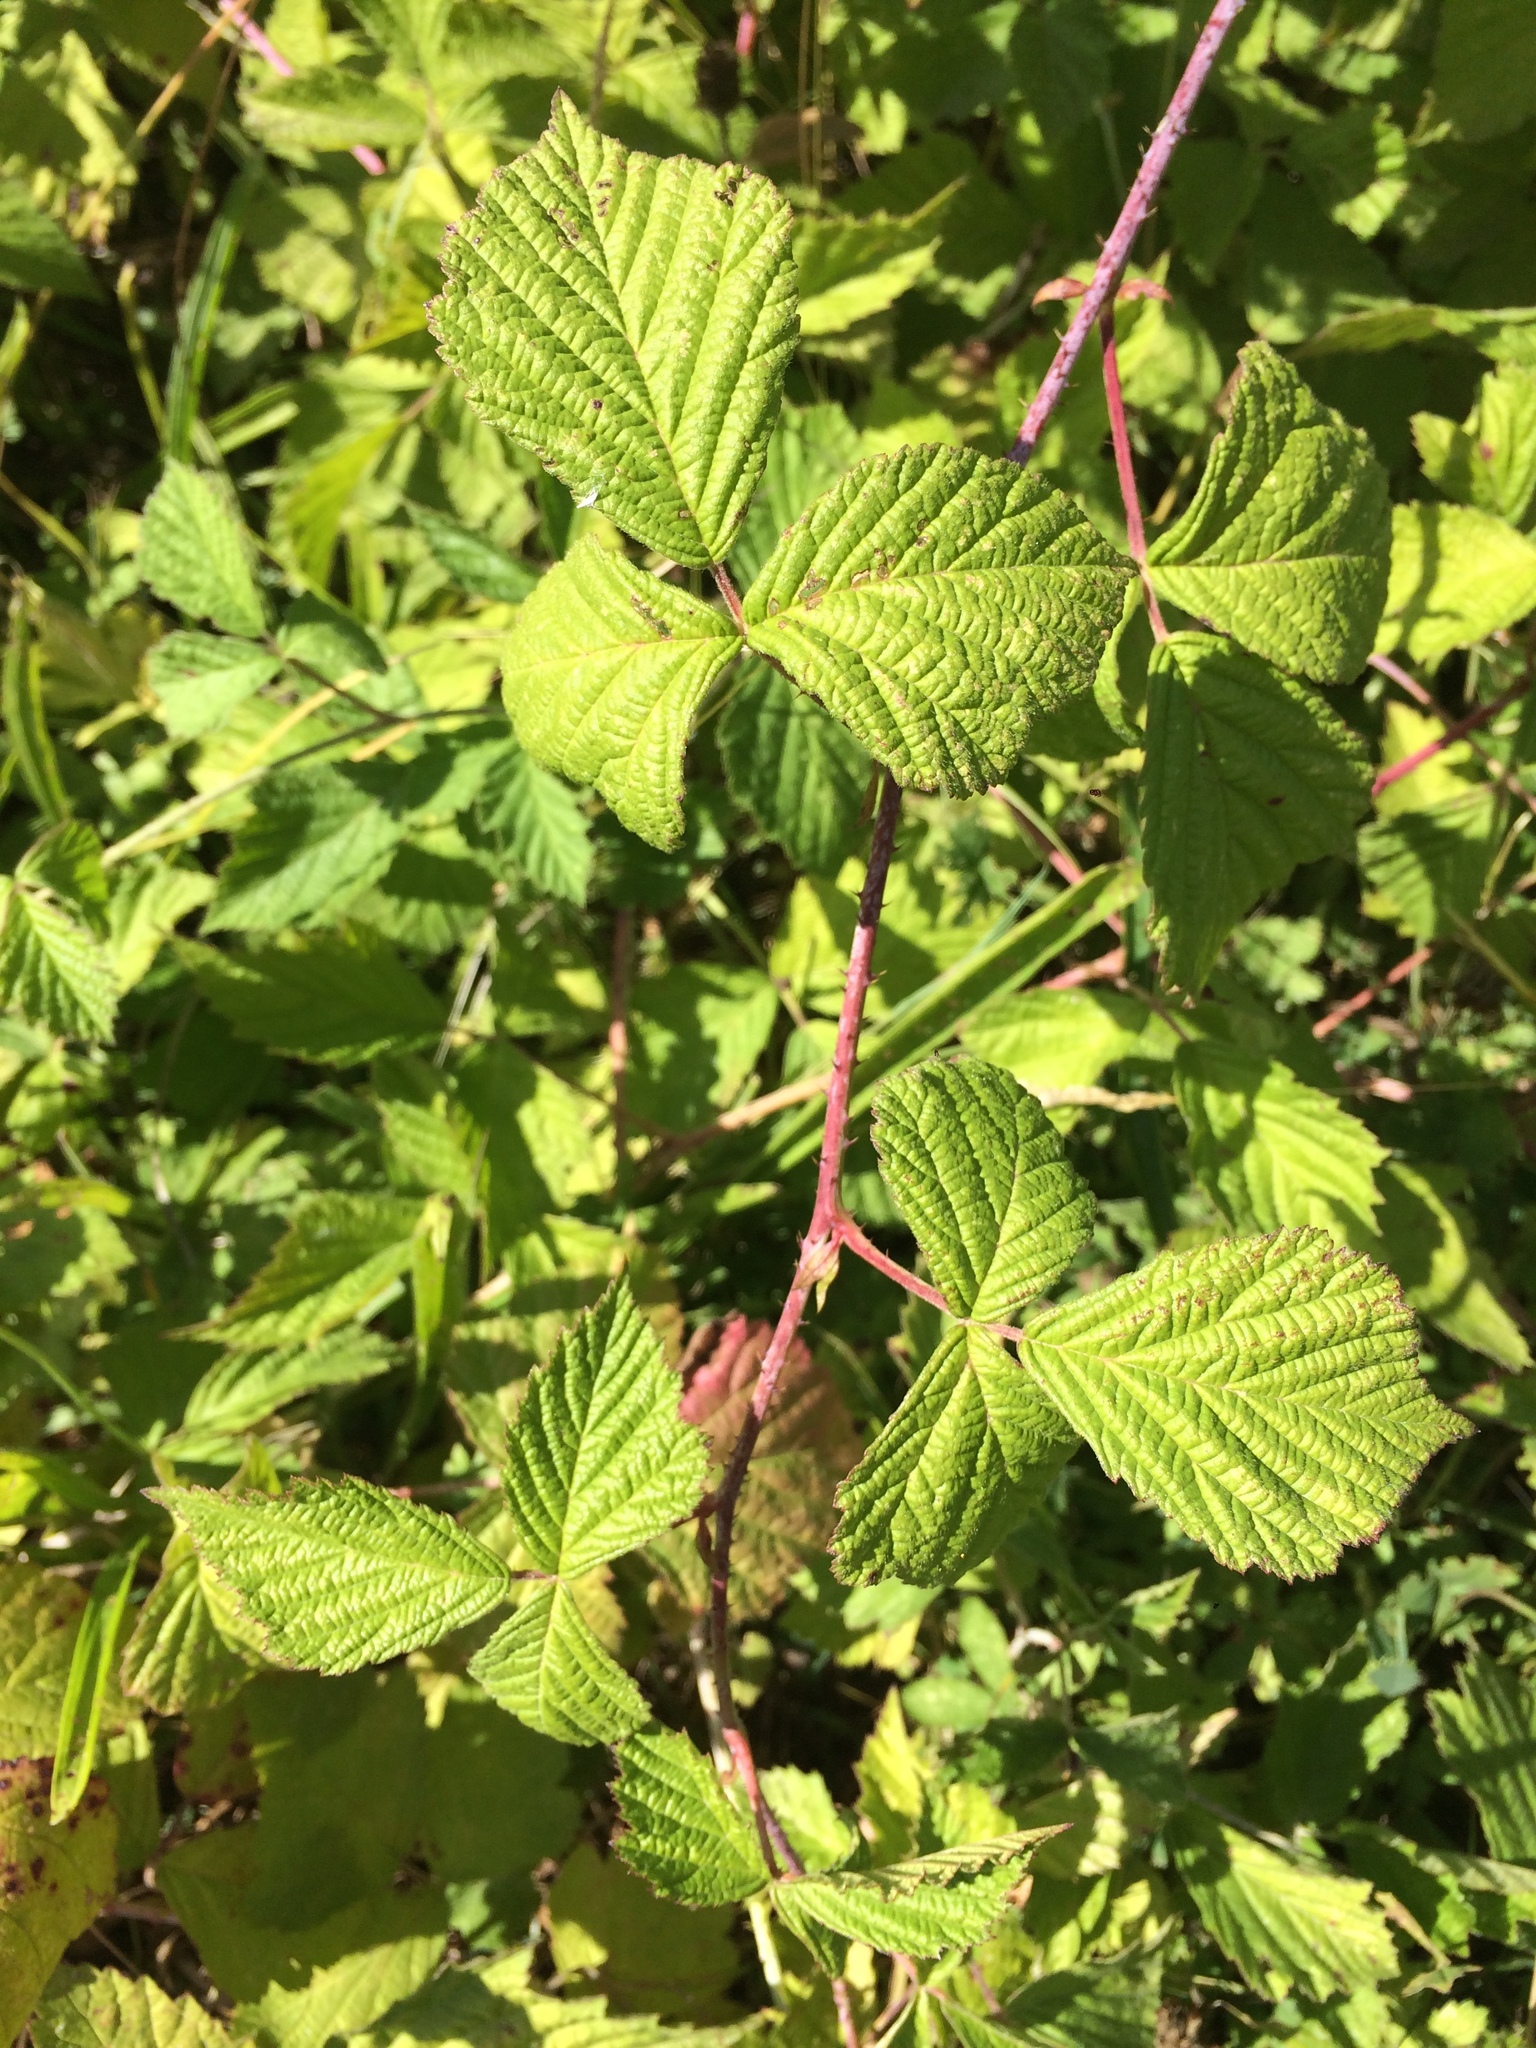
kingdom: Plantae
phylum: Tracheophyta
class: Magnoliopsida
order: Rosales
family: Rosaceae
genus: Rubus
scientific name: Rubus caesius
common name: Dewberry
